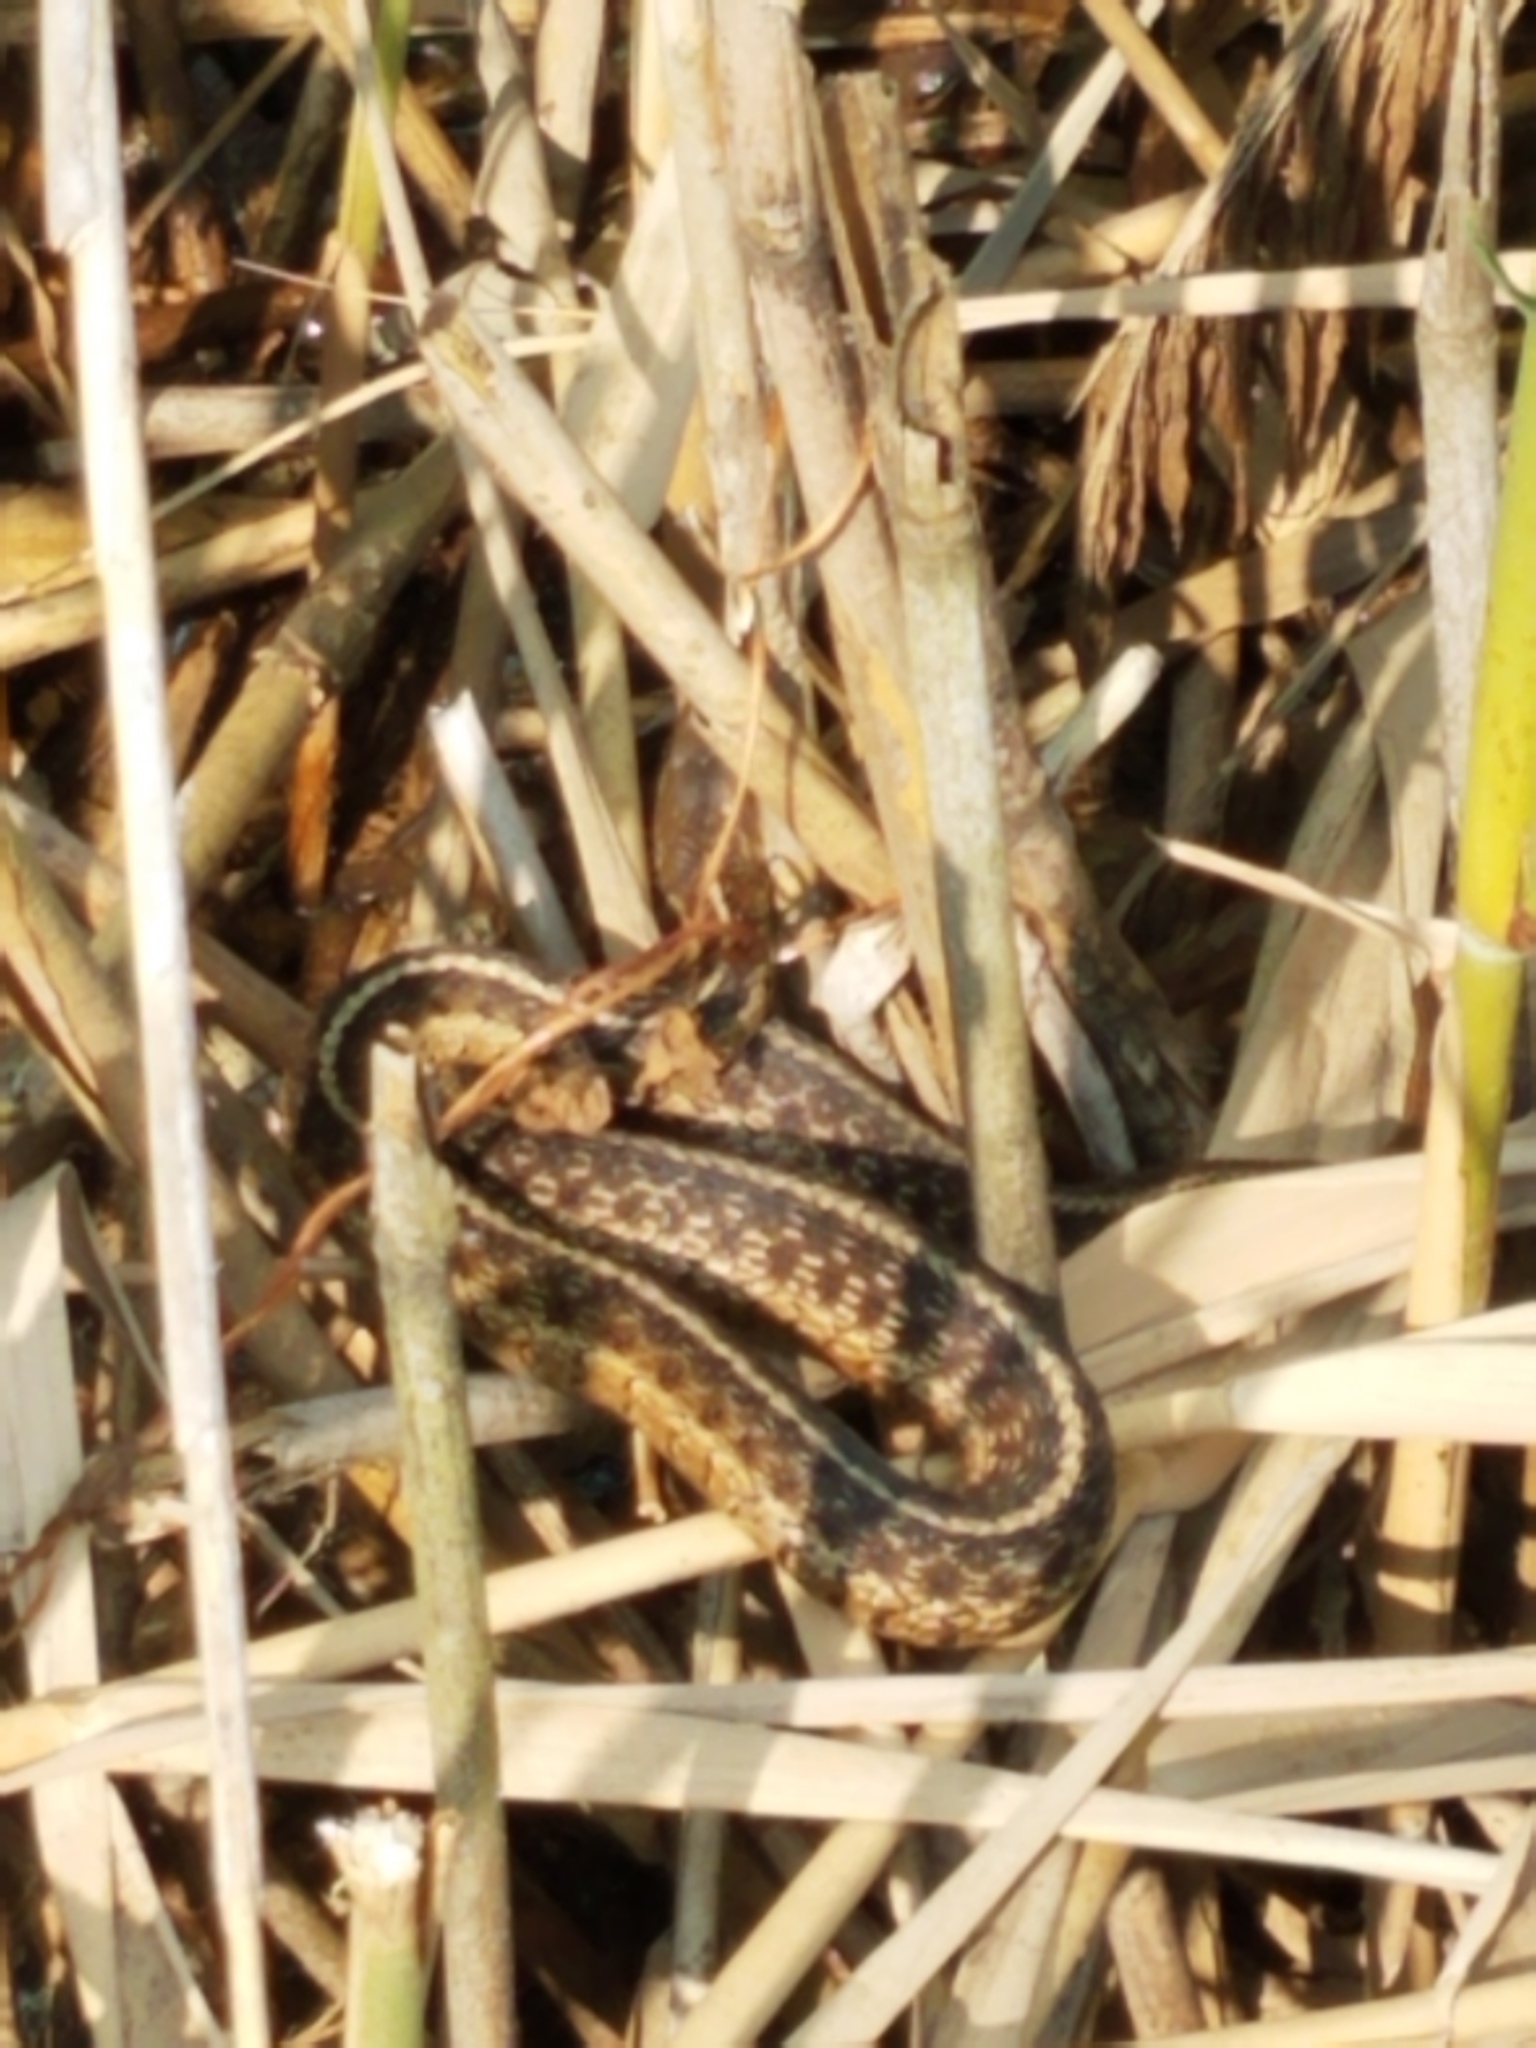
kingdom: Animalia
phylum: Chordata
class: Squamata
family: Colubridae
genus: Thamnophis
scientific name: Thamnophis sirtalis
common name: Common garter snake
